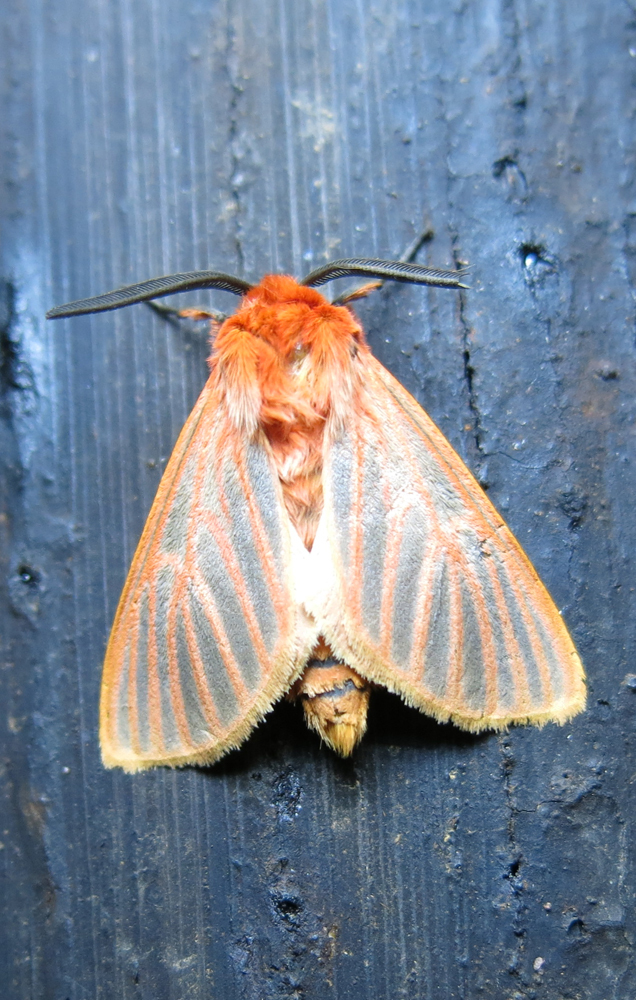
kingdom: Animalia
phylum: Arthropoda
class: Insecta
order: Lepidoptera
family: Erebidae
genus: Automolis
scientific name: Automolis lateritia
